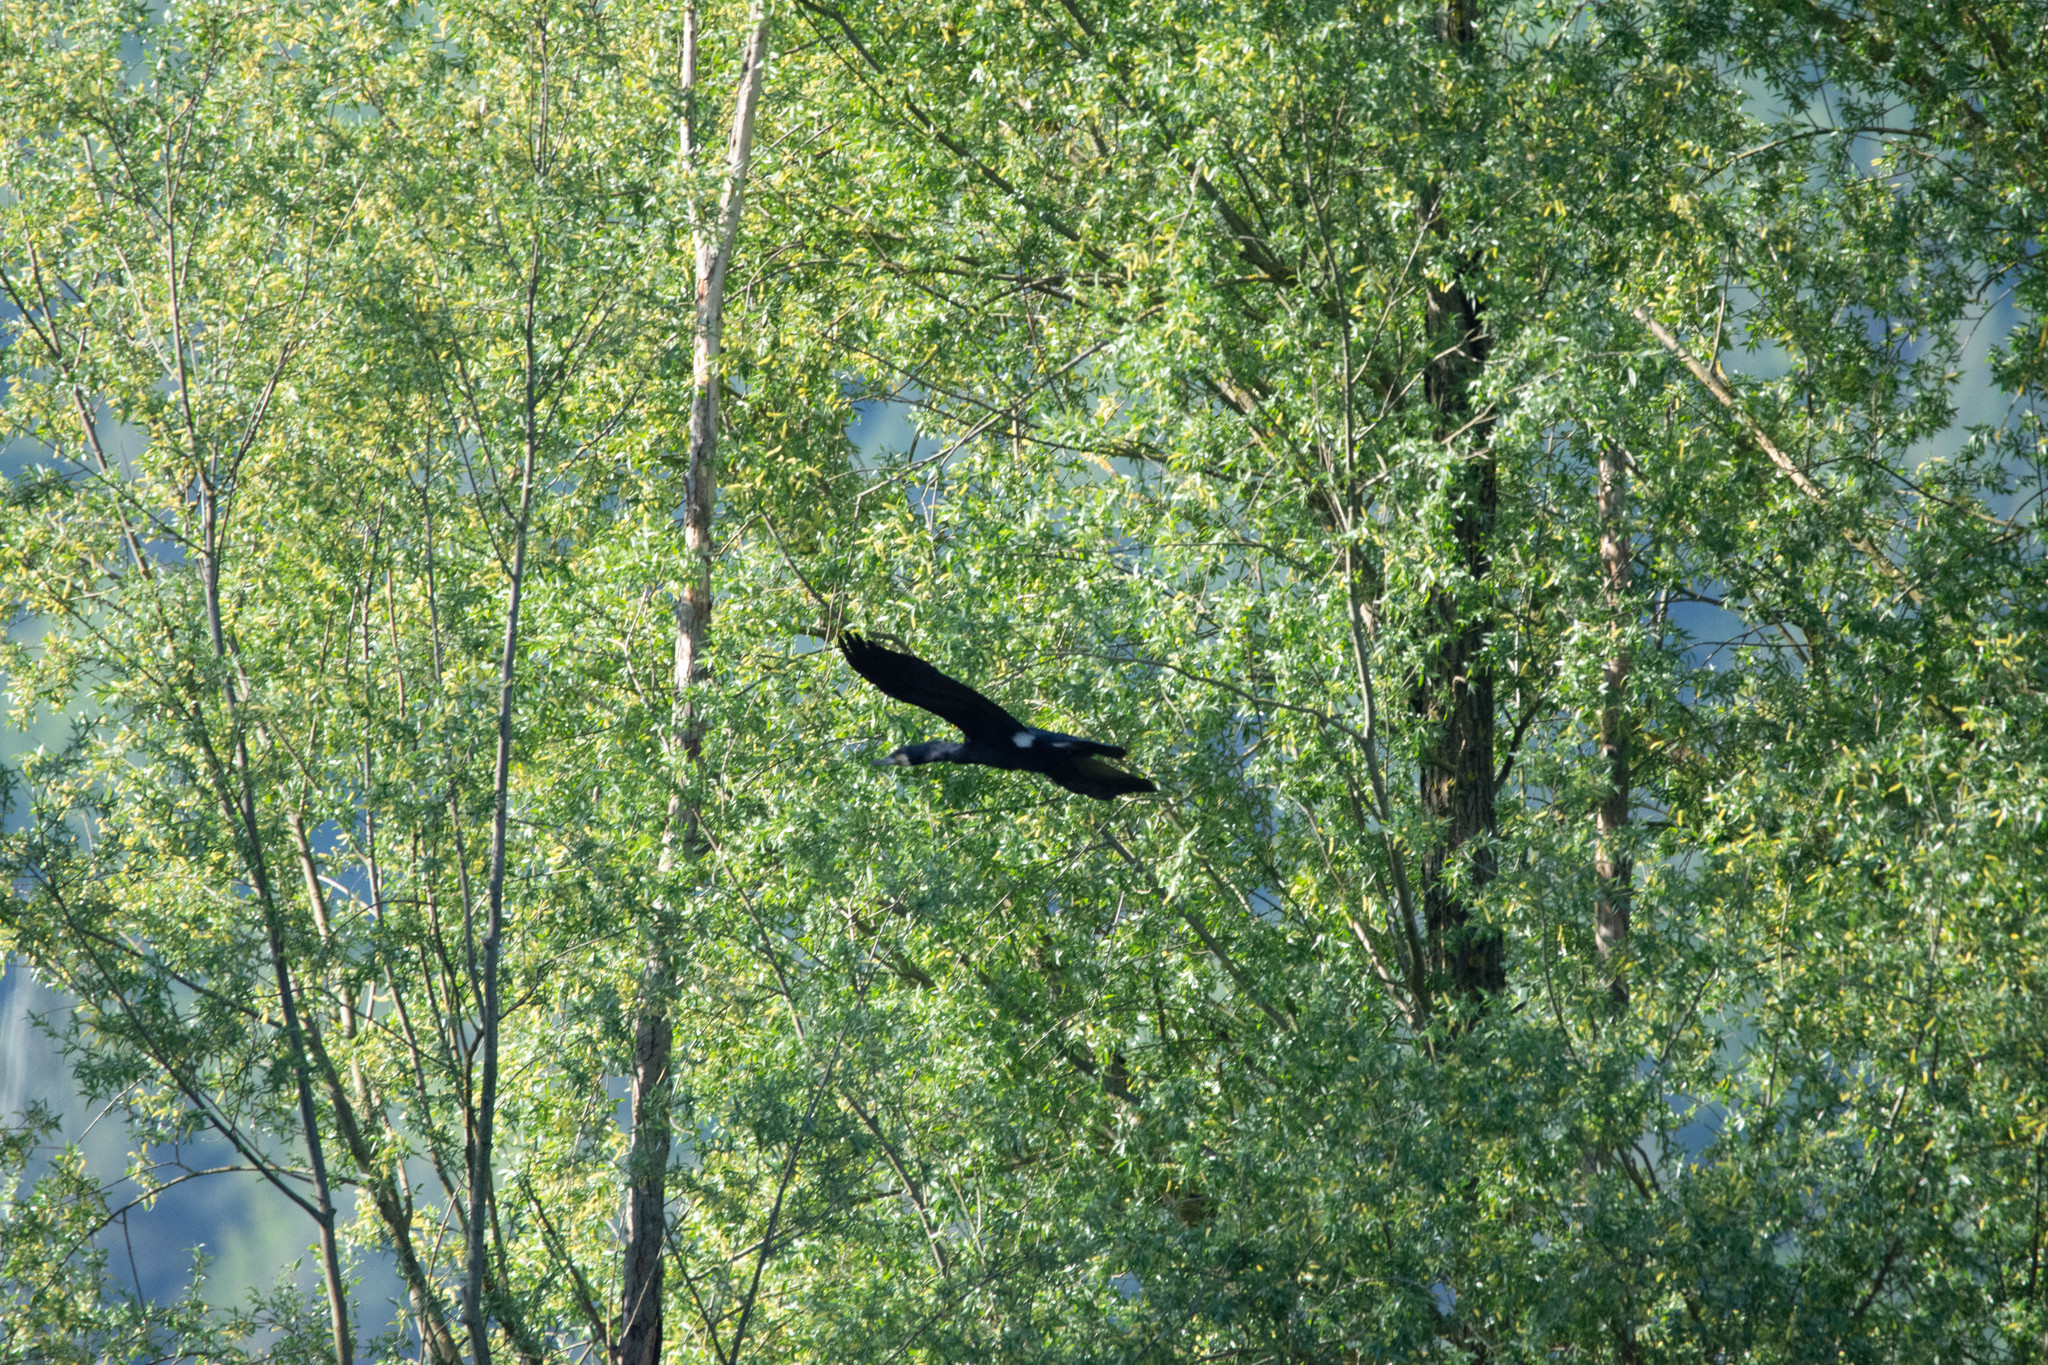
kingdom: Animalia
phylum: Chordata
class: Aves
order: Suliformes
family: Phalacrocoracidae
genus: Phalacrocorax
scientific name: Phalacrocorax carbo
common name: Great cormorant
